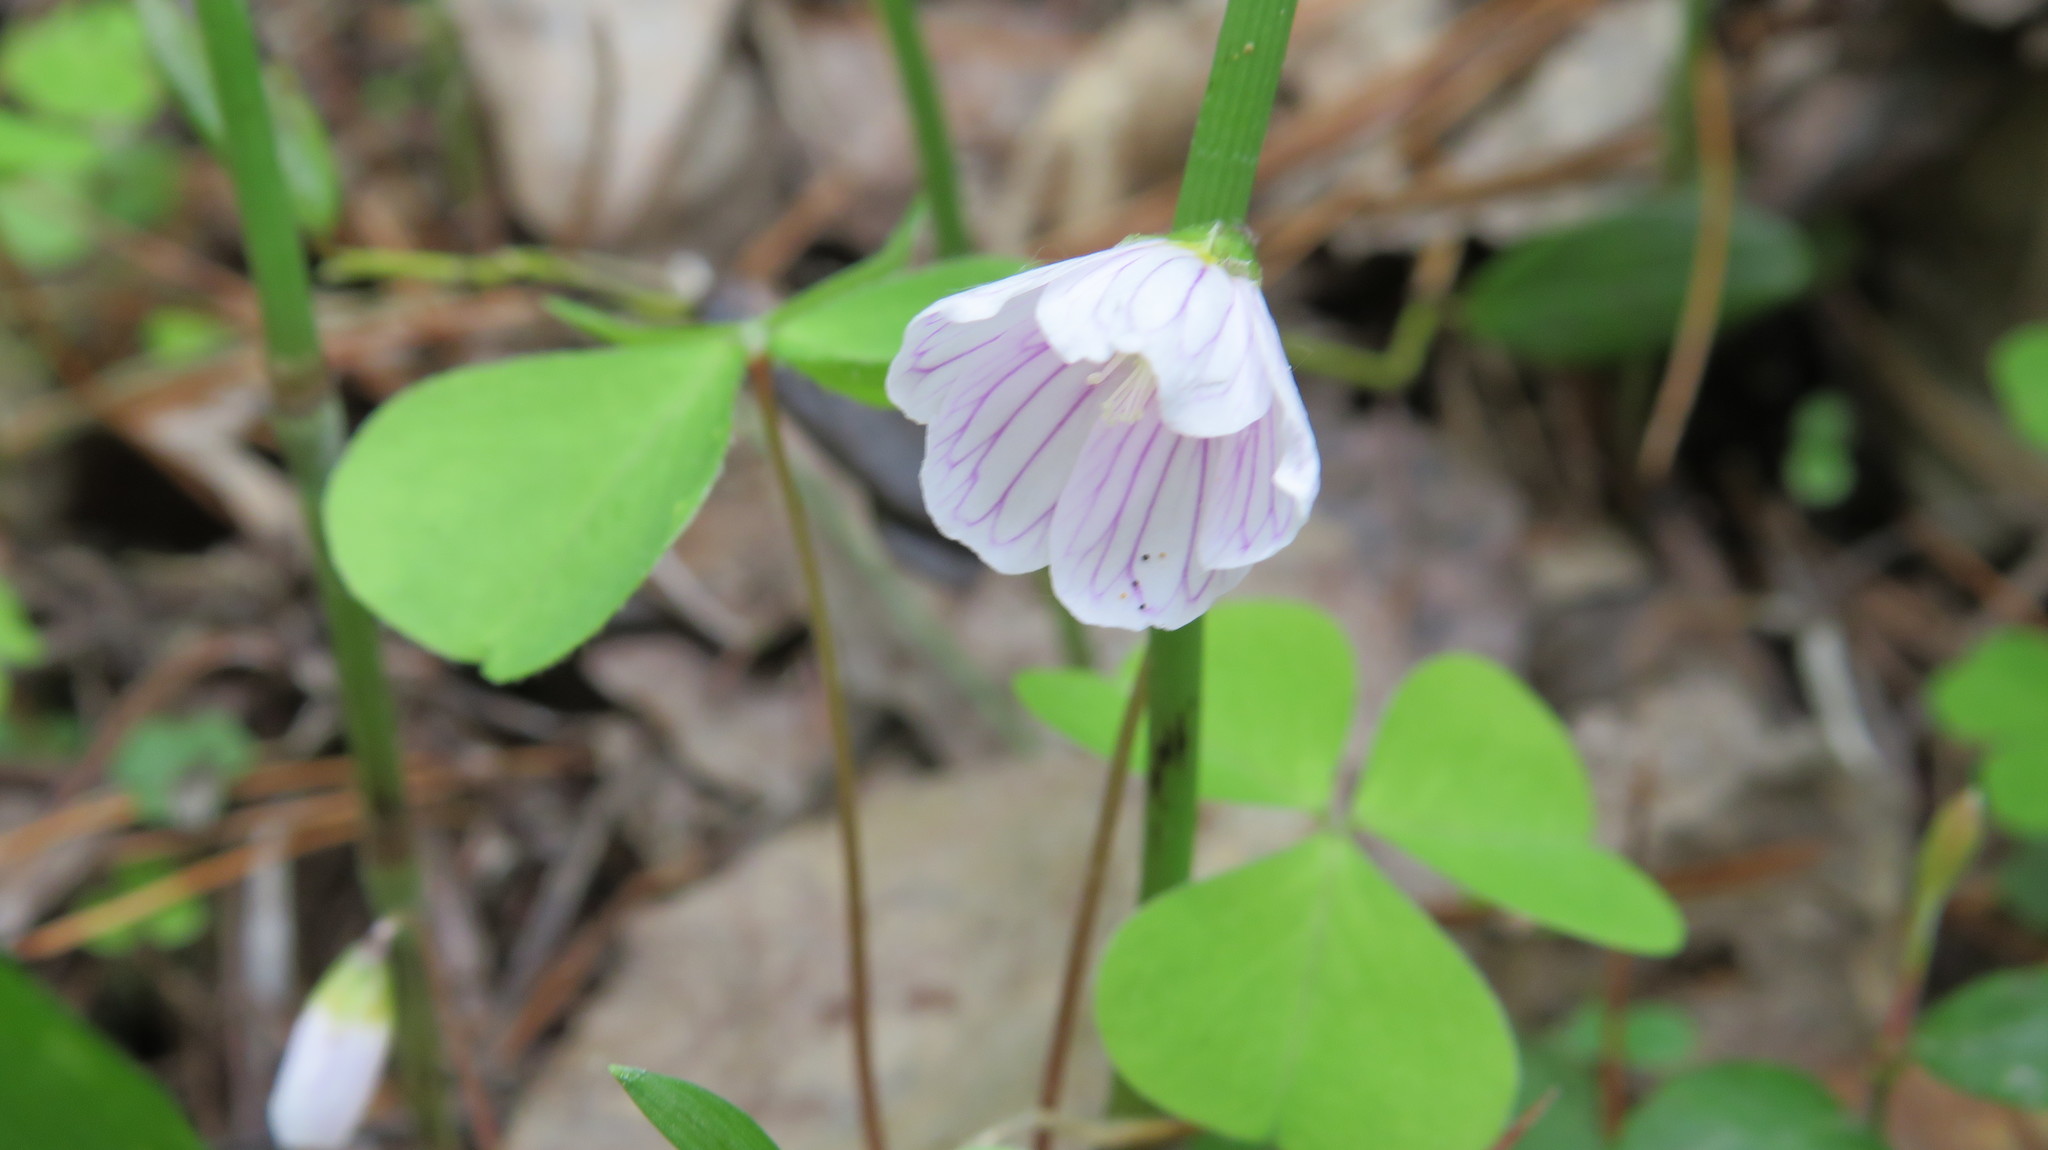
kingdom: Plantae
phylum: Tracheophyta
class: Magnoliopsida
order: Oxalidales
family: Oxalidaceae
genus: Oxalis
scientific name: Oxalis acetosella
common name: Wood-sorrel
